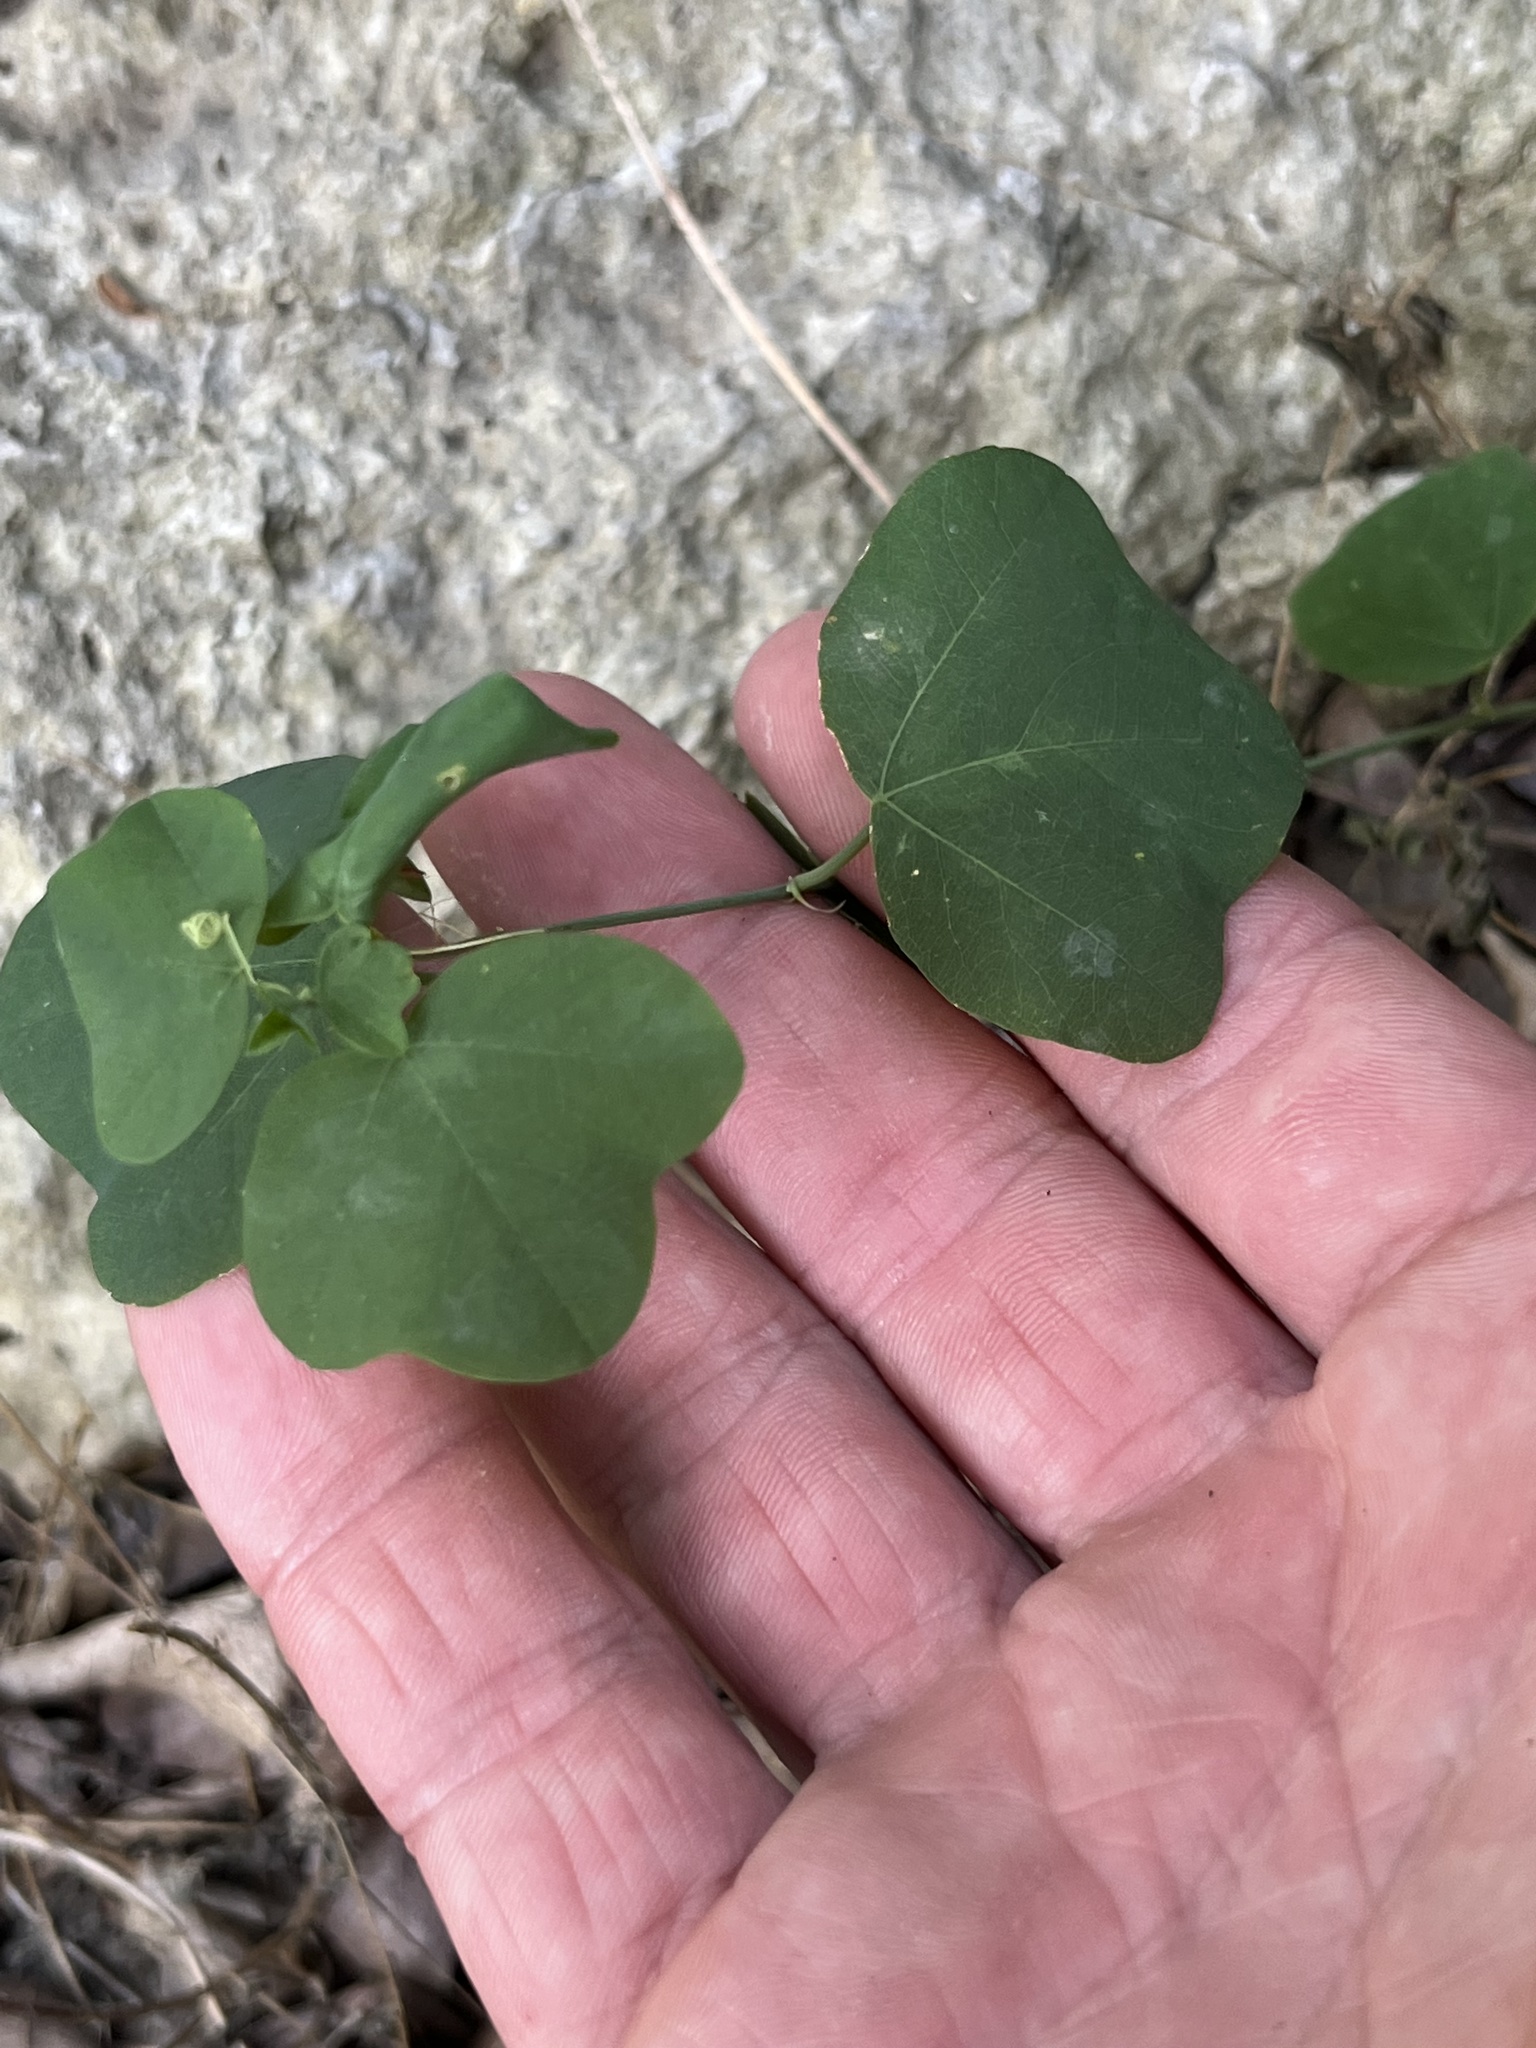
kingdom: Plantae
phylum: Tracheophyta
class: Magnoliopsida
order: Malpighiales
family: Passifloraceae
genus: Passiflora
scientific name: Passiflora lutea
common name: Yellow passionflower
